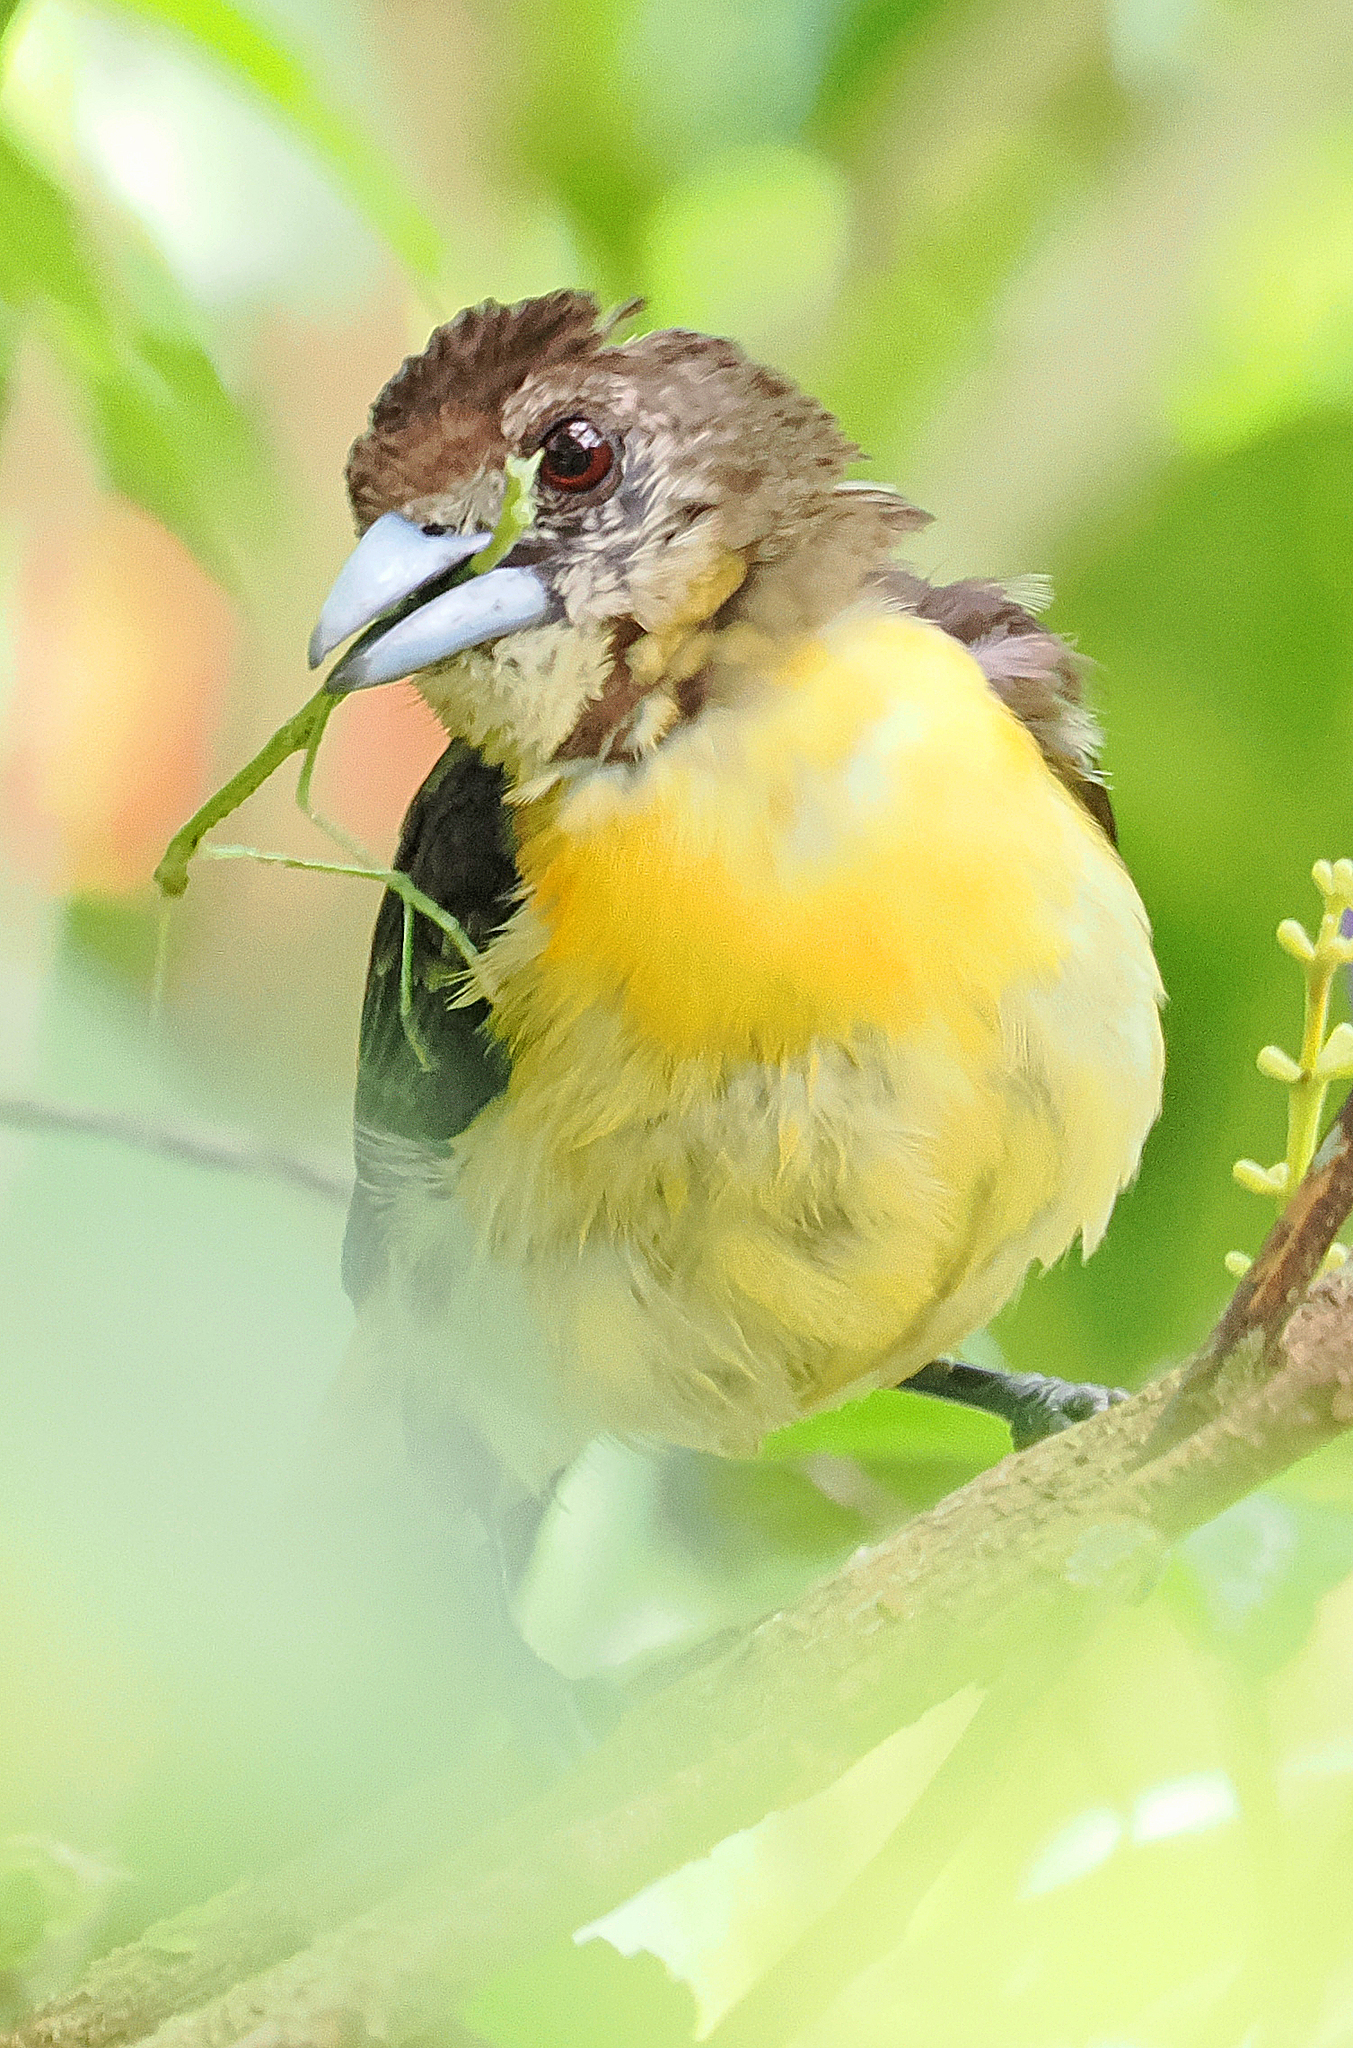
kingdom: Animalia
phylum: Chordata
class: Aves
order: Passeriformes
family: Thraupidae
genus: Ramphocelus
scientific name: Ramphocelus flammigerus
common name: Flame-rumped tanager
